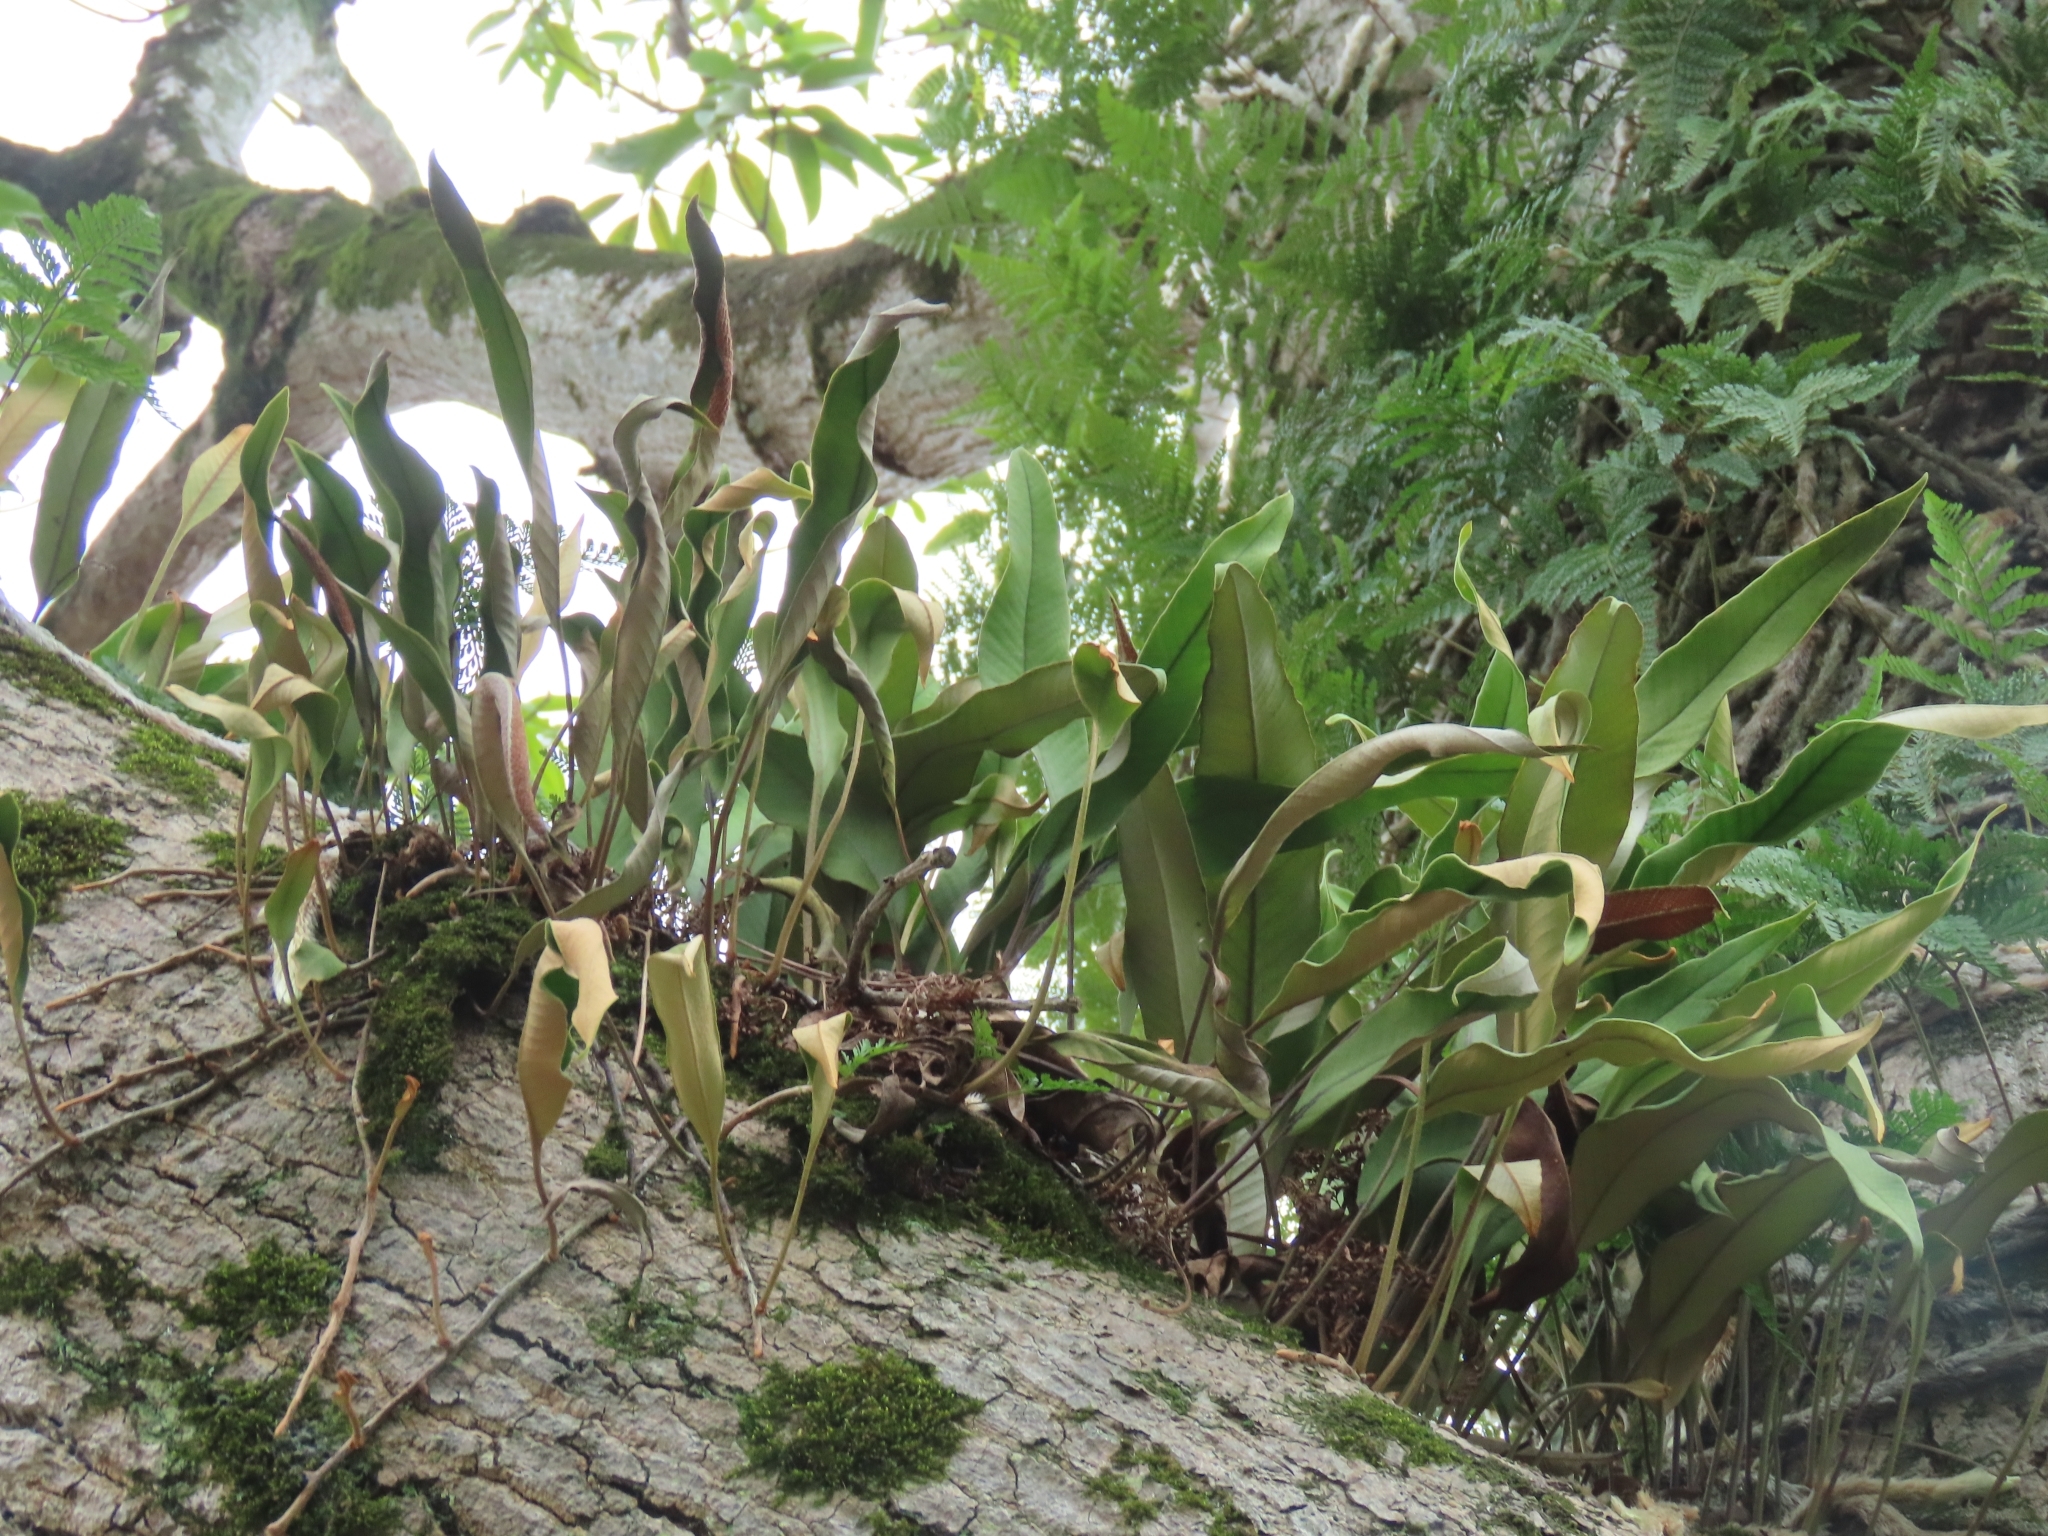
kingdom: Plantae
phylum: Tracheophyta
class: Polypodiopsida
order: Polypodiales
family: Polypodiaceae
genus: Pyrrosia
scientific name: Pyrrosia lingua
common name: Felt fern
